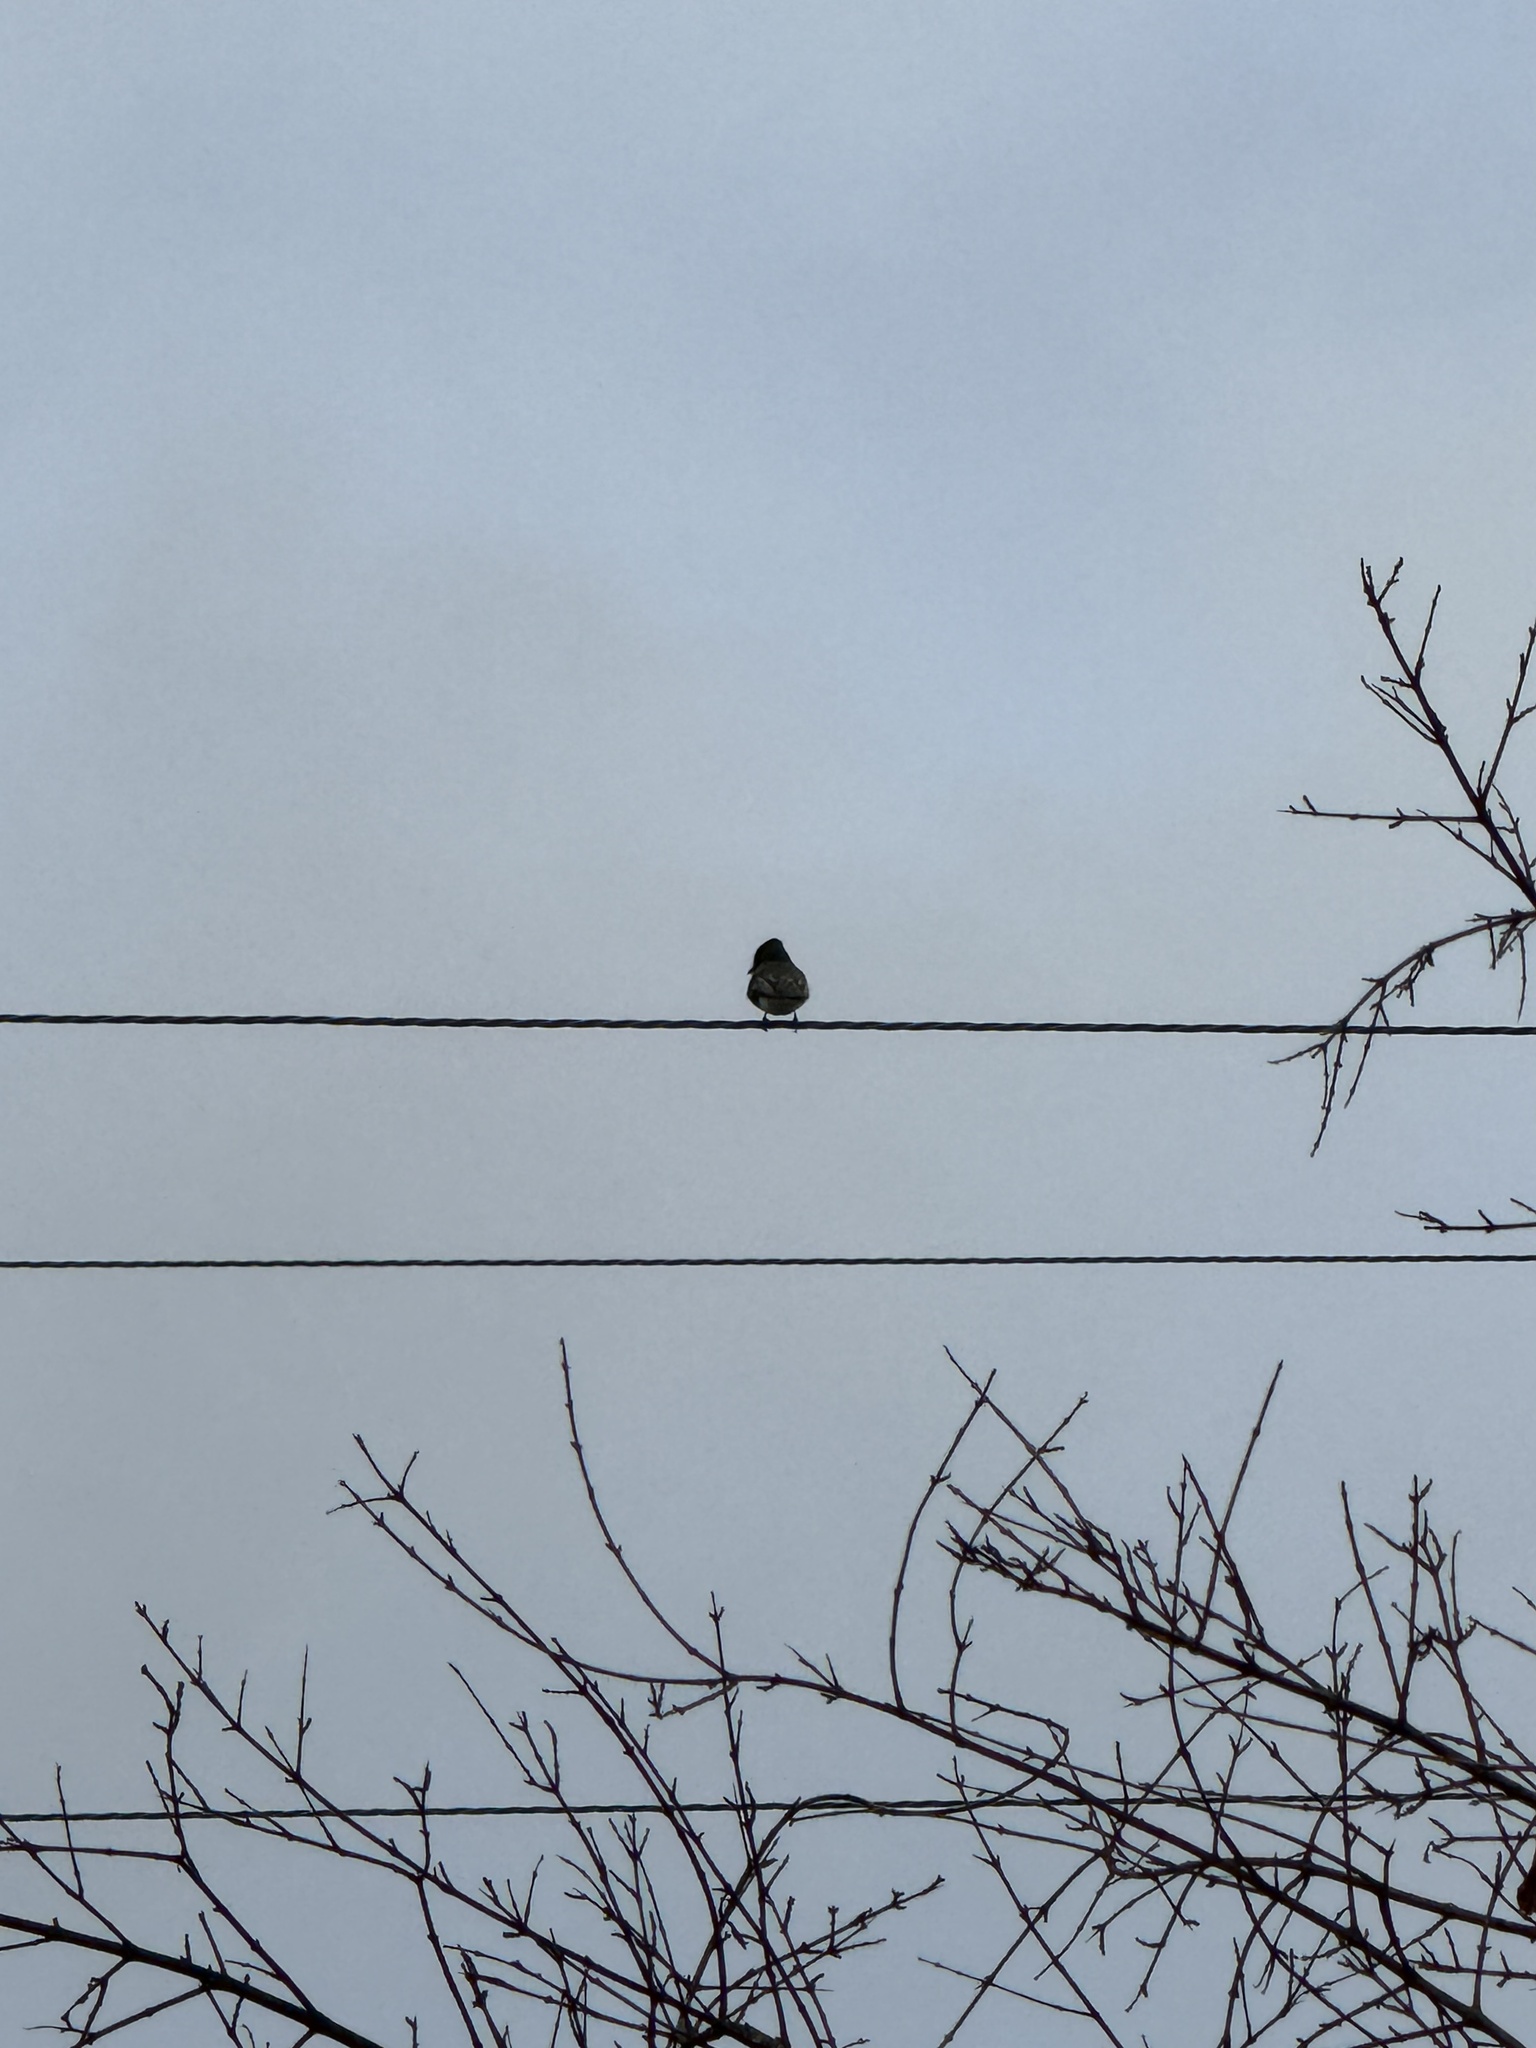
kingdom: Animalia
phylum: Chordata
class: Aves
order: Passeriformes
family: Tyrannidae
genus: Sayornis
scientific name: Sayornis nigricans
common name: Black phoebe
